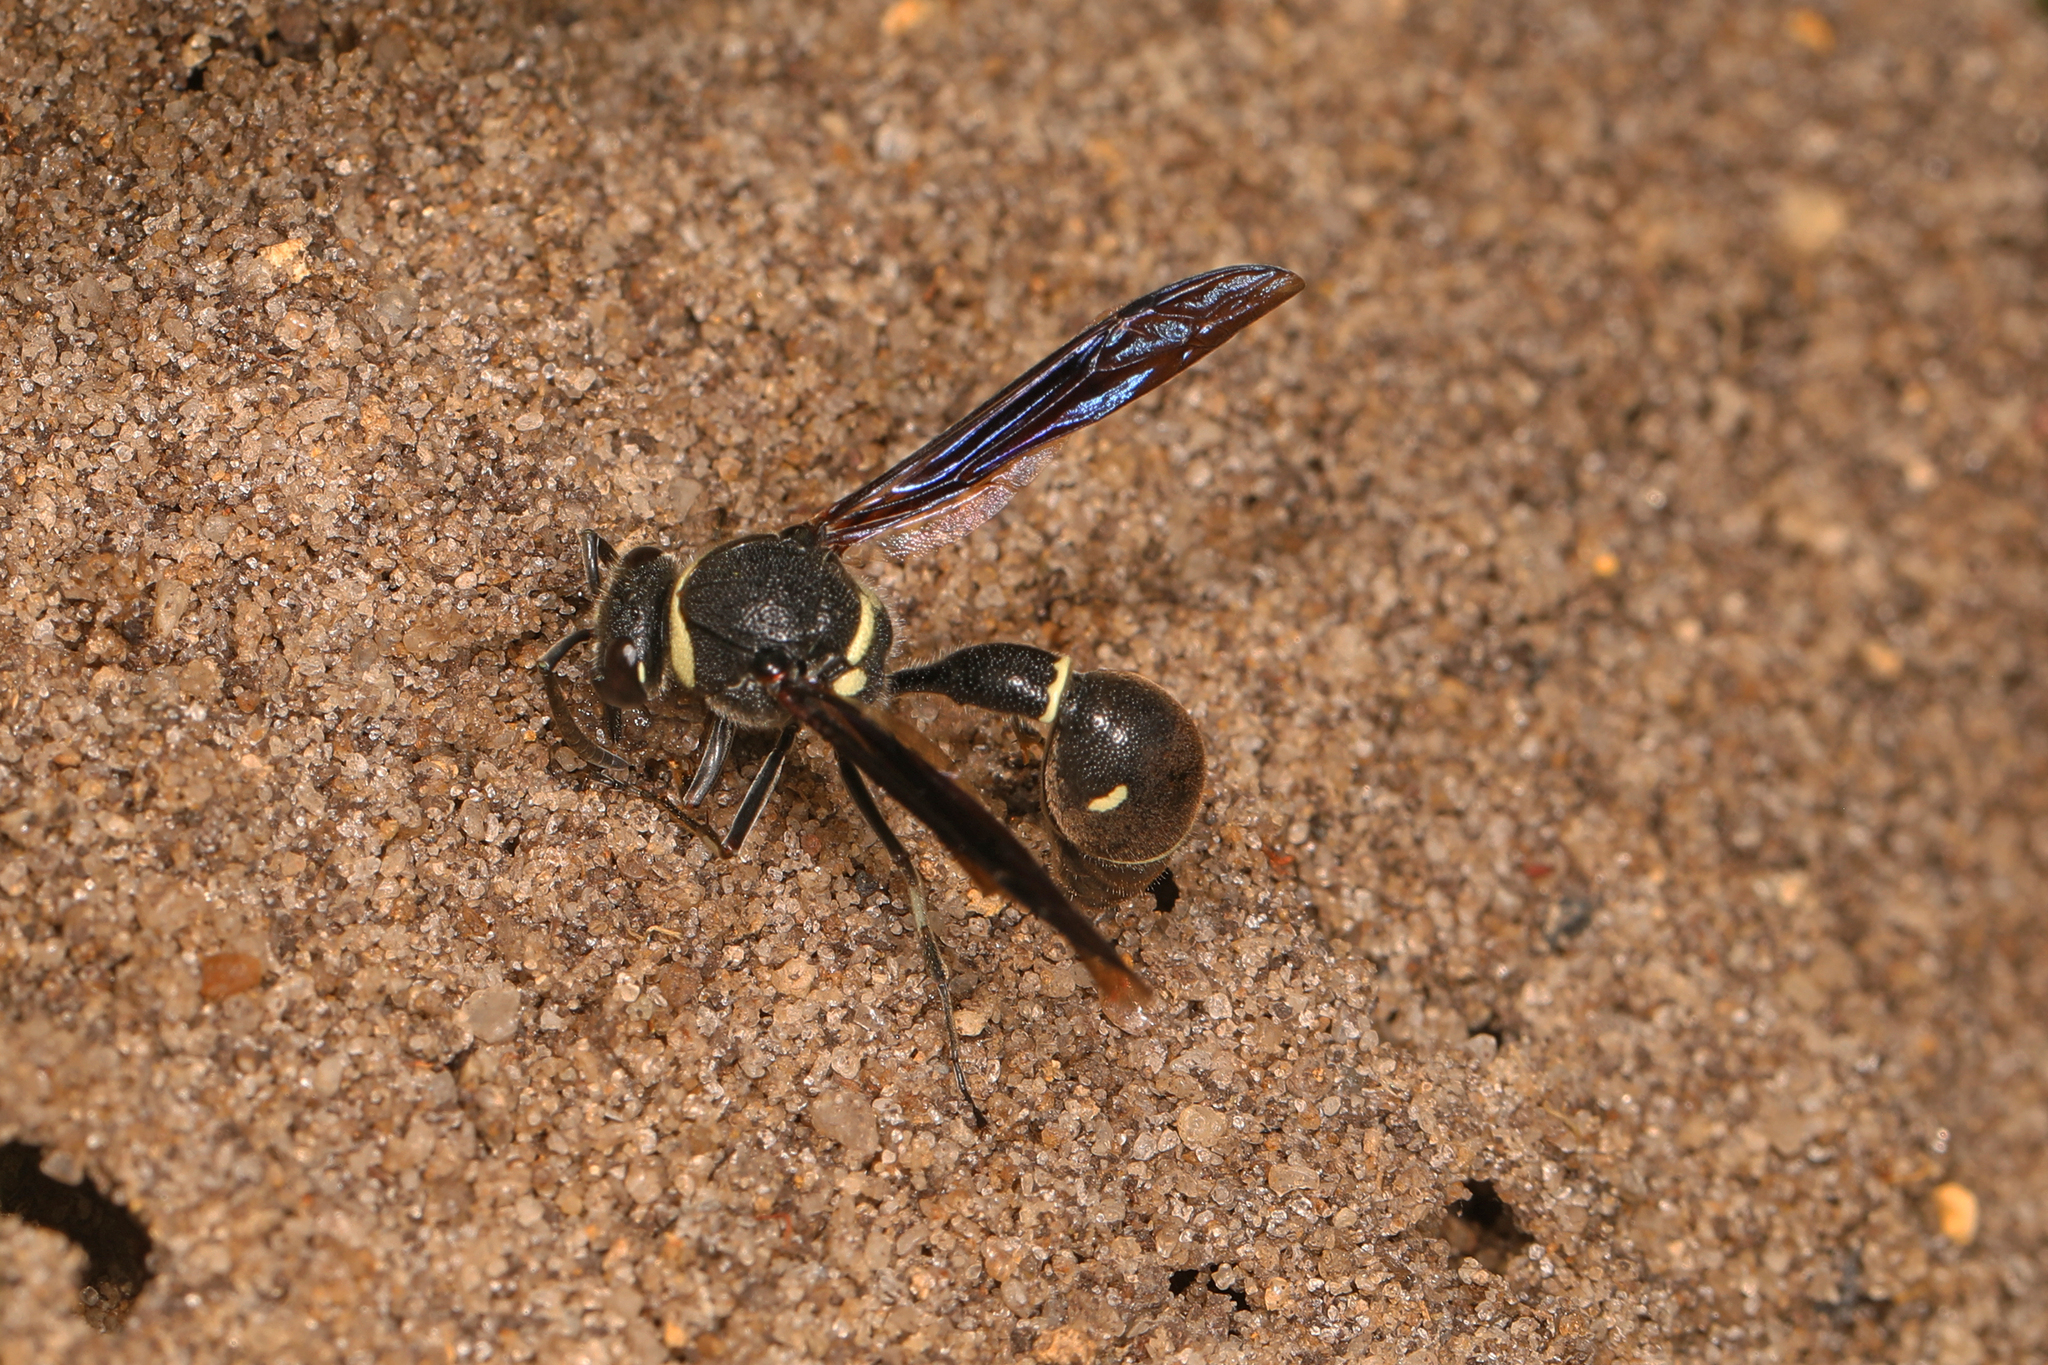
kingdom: Animalia
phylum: Arthropoda
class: Insecta
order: Hymenoptera
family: Vespidae
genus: Eumenes
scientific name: Eumenes fraternus
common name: Fraternal potter wasp
